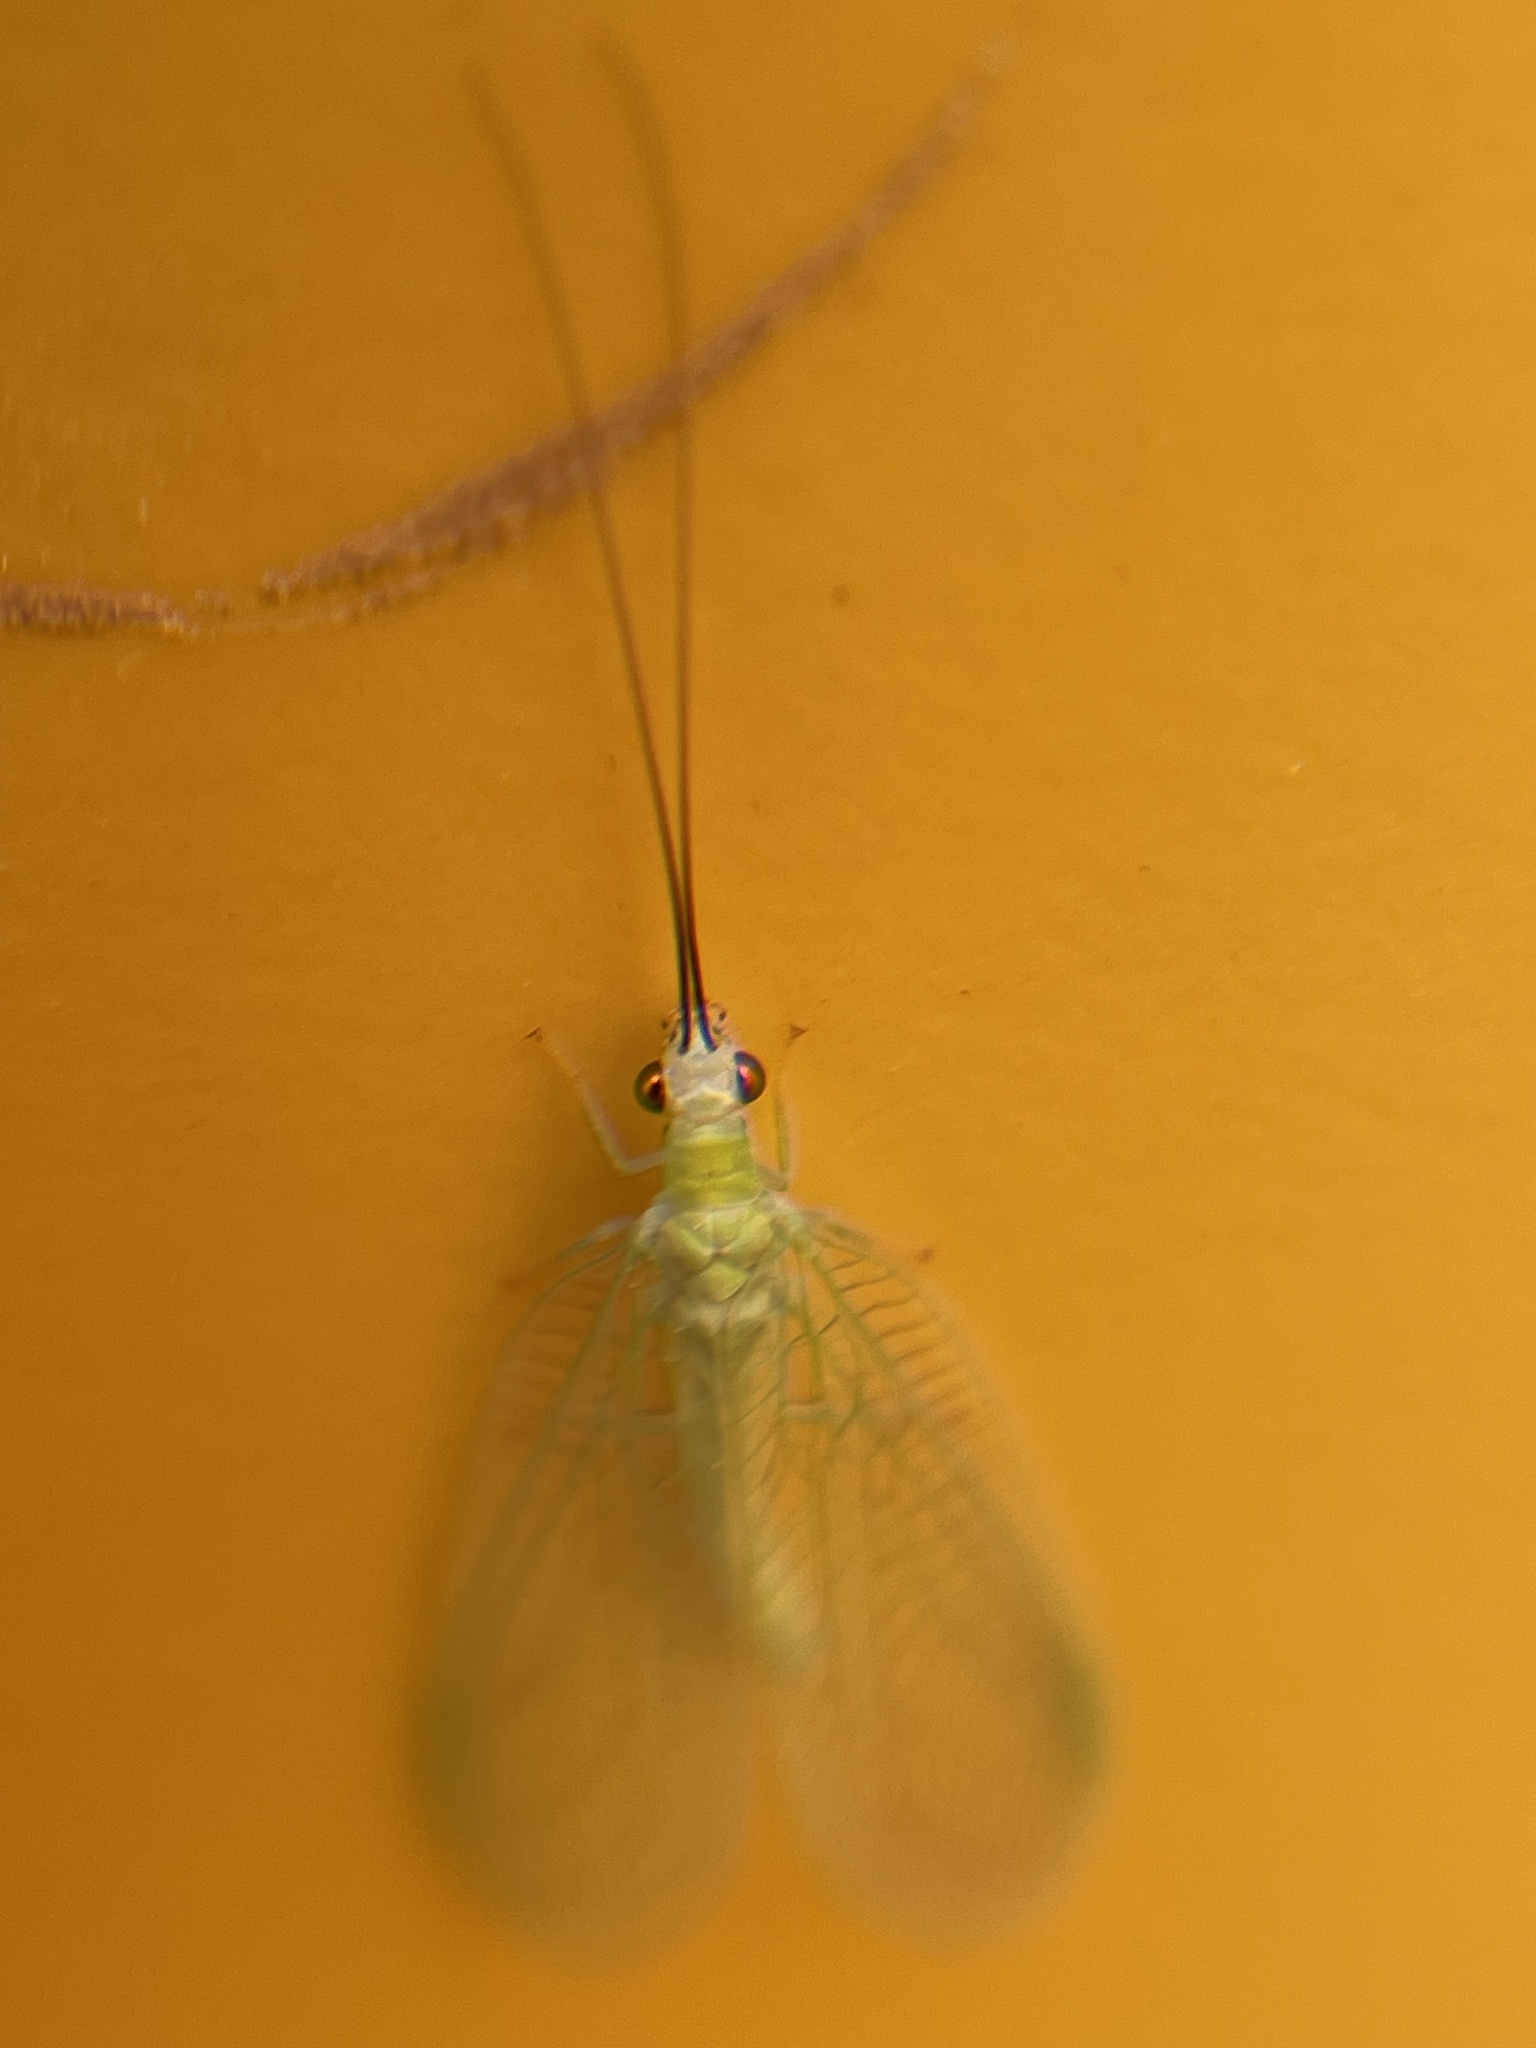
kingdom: Animalia
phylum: Arthropoda
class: Insecta
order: Neuroptera
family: Chrysopidae
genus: Chrysopa
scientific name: Chrysopa nigricornis
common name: Black-horned green lacewing
